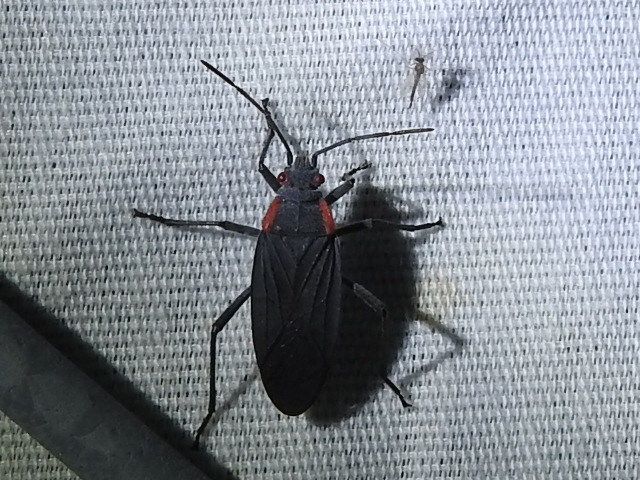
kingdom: Animalia
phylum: Arthropoda
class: Insecta
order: Hemiptera
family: Rhopalidae
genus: Jadera
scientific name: Jadera haematoloma
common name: Red-shouldered bug
